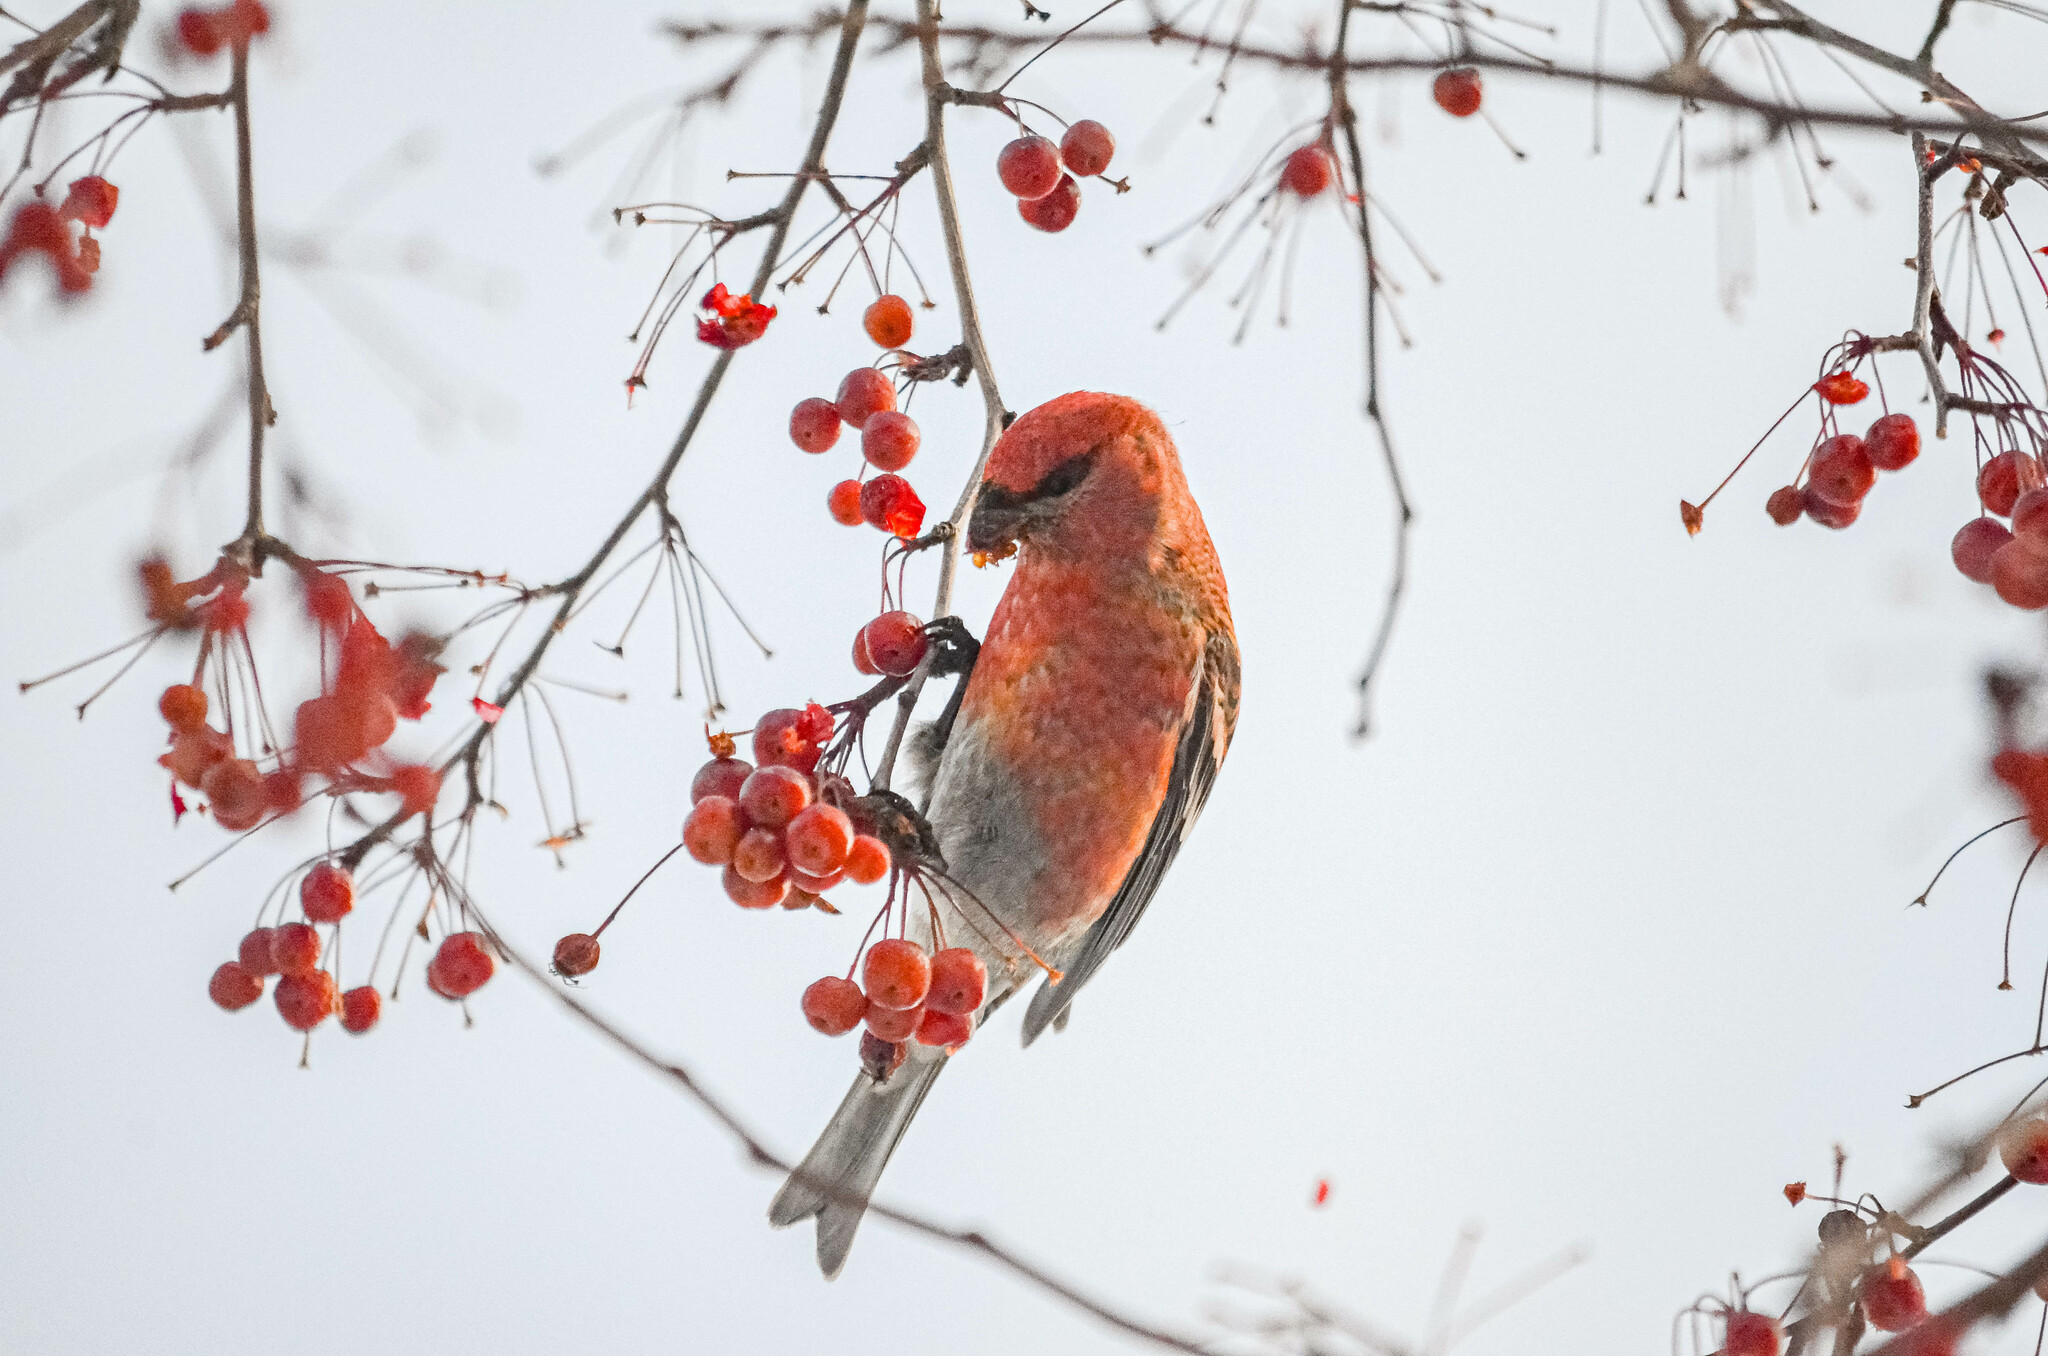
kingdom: Animalia
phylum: Chordata
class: Aves
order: Passeriformes
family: Fringillidae
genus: Pinicola
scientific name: Pinicola enucleator
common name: Pine grosbeak
